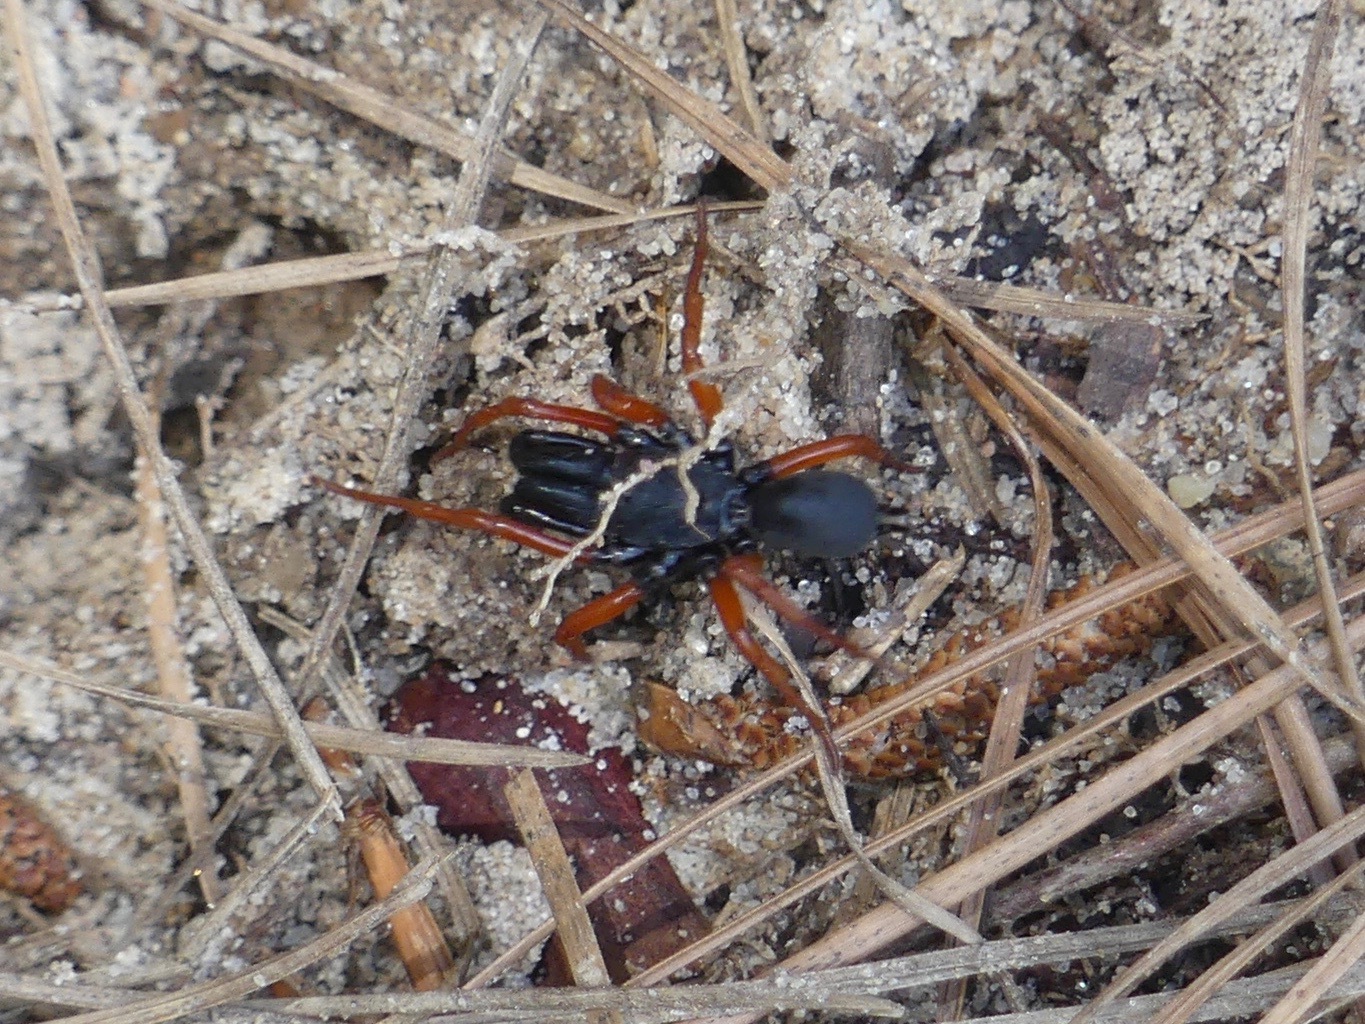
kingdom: Animalia
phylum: Arthropoda
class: Arachnida
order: Araneae
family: Atypidae
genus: Sphodros
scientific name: Sphodros rufipes
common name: Red-legged purseweb spider
